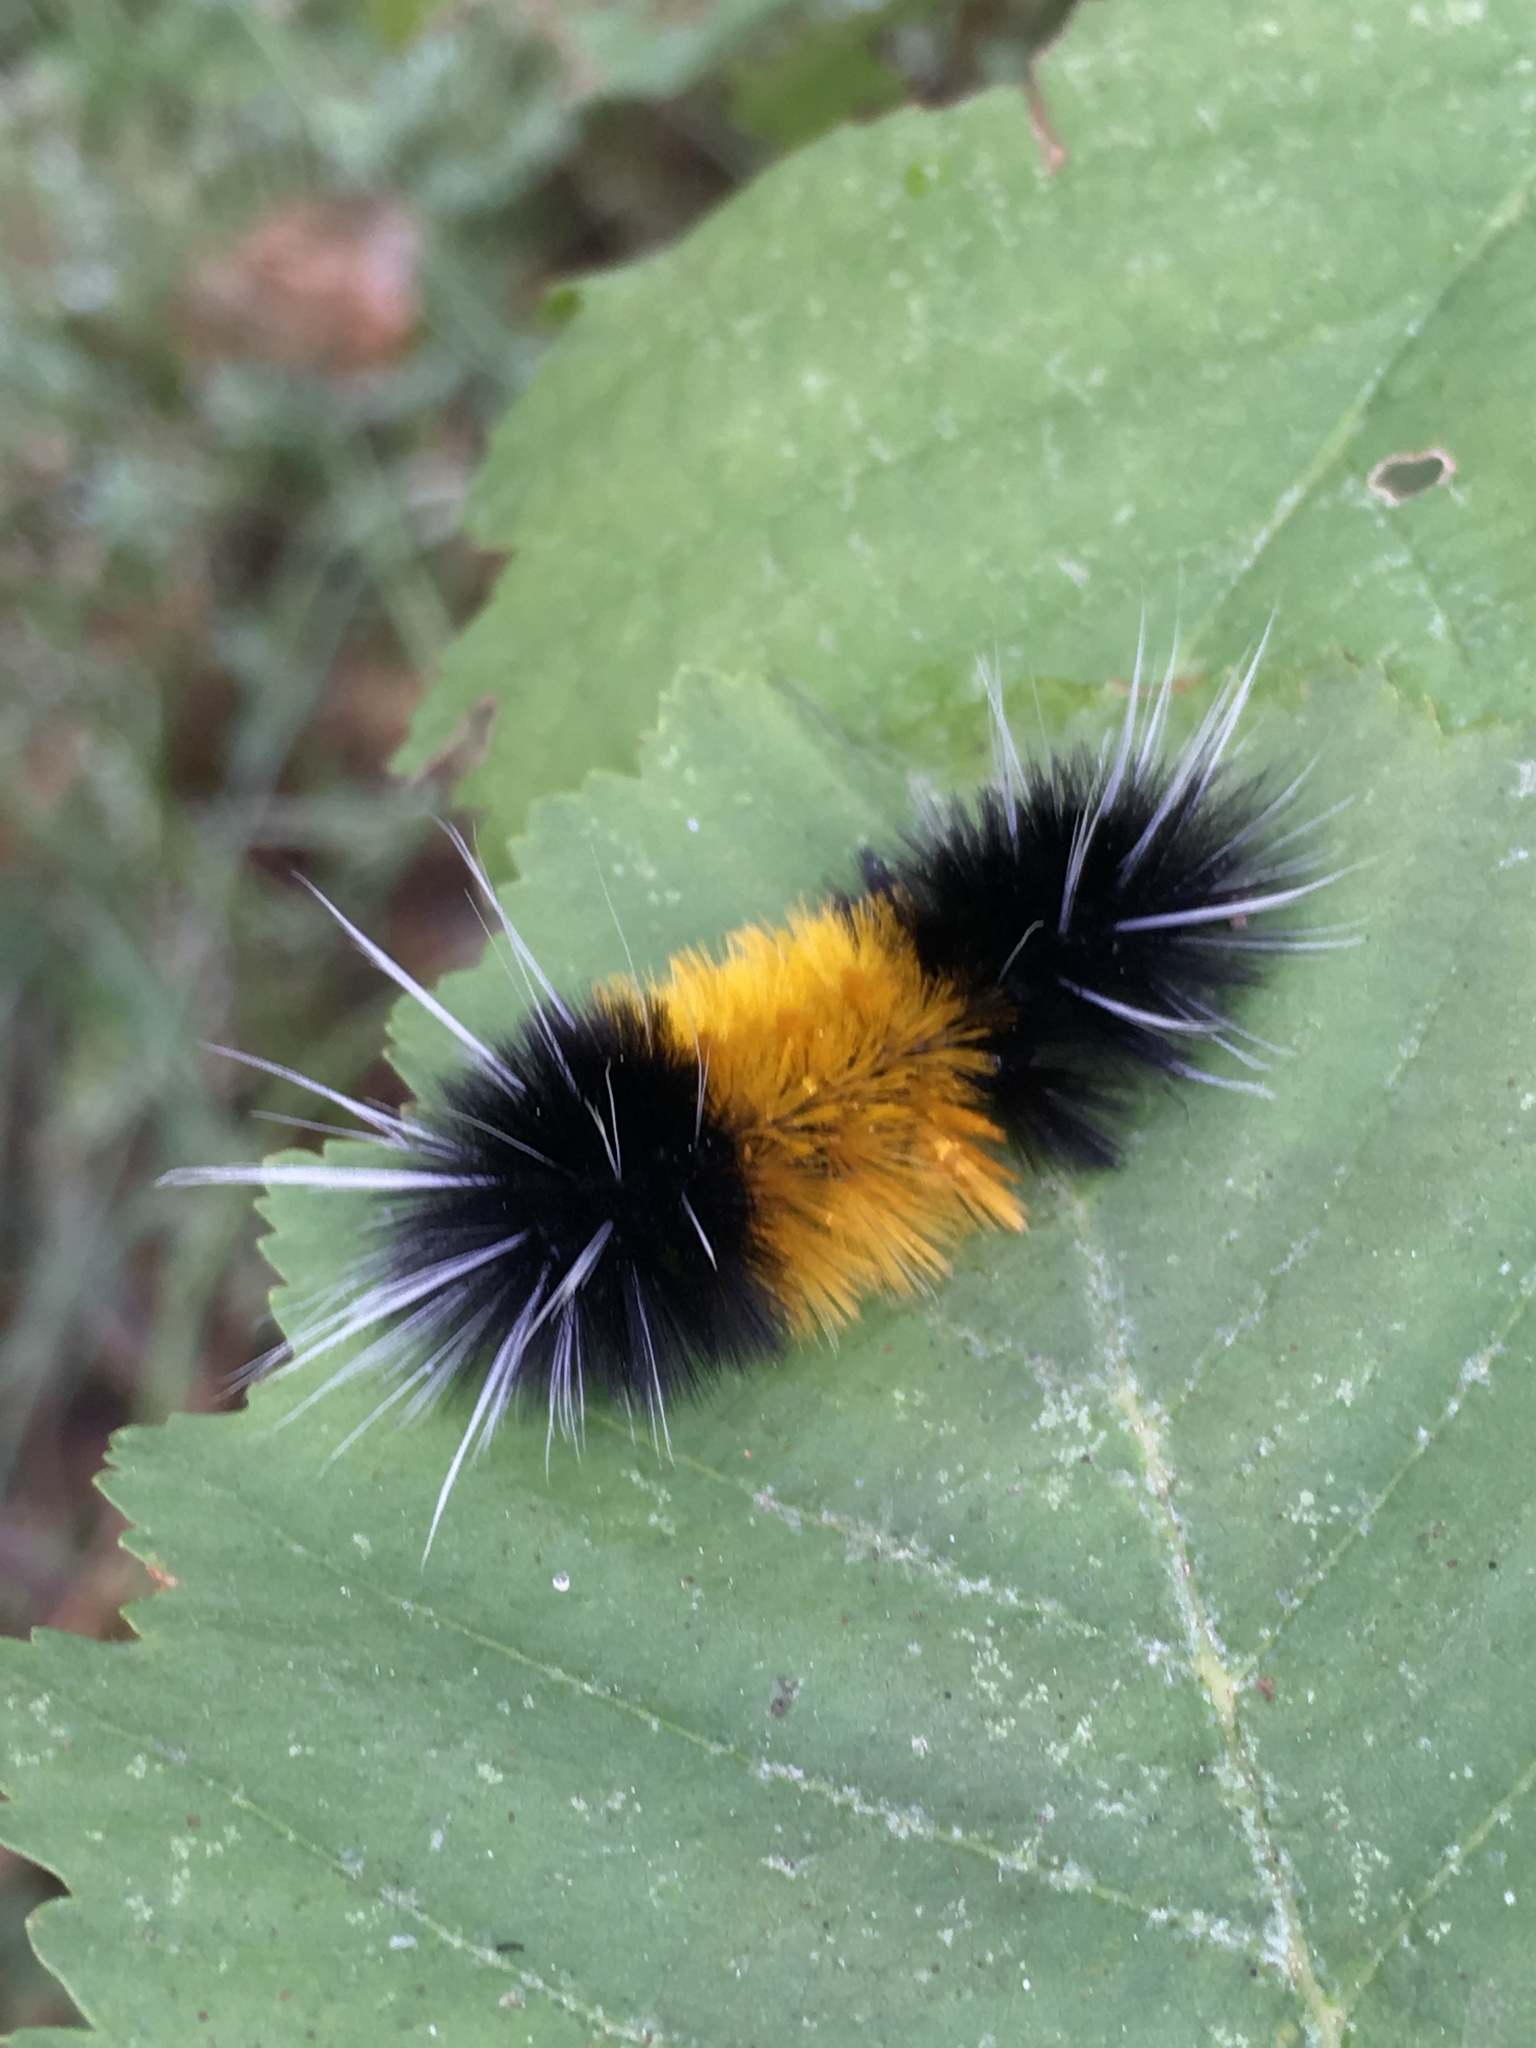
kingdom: Animalia
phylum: Arthropoda
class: Insecta
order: Lepidoptera
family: Erebidae
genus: Lophocampa
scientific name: Lophocampa maculata
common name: Spotted tussock moth
